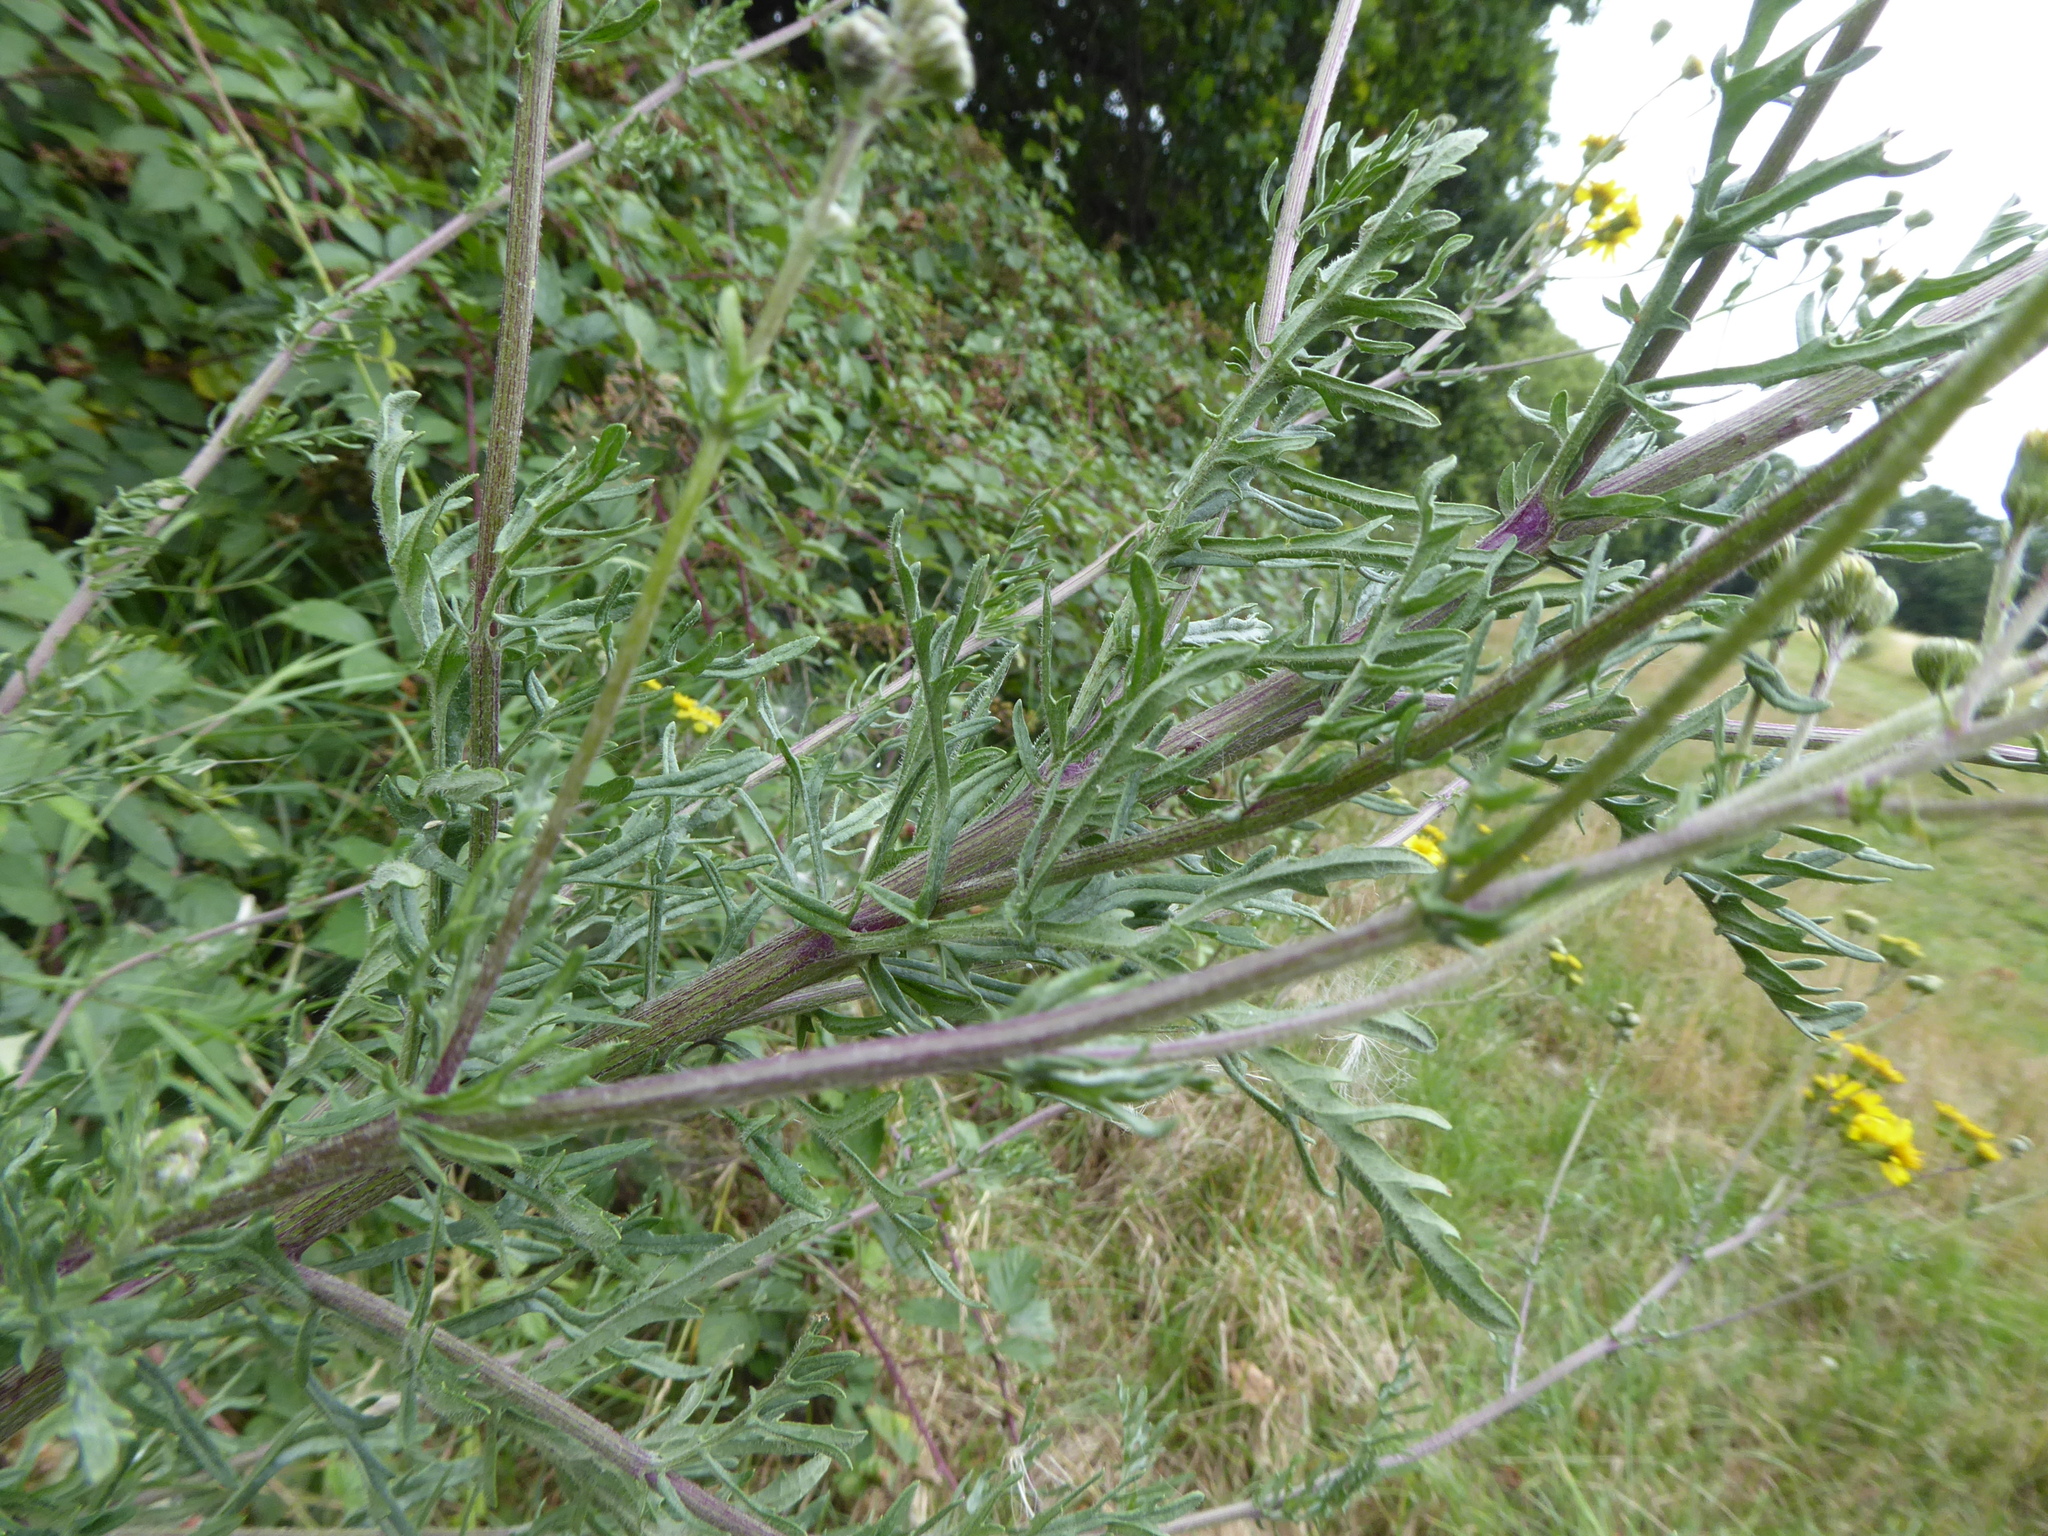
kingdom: Plantae
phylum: Tracheophyta
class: Magnoliopsida
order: Asterales
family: Asteraceae
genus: Jacobaea
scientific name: Jacobaea erucifolia
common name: Hoary ragwort
